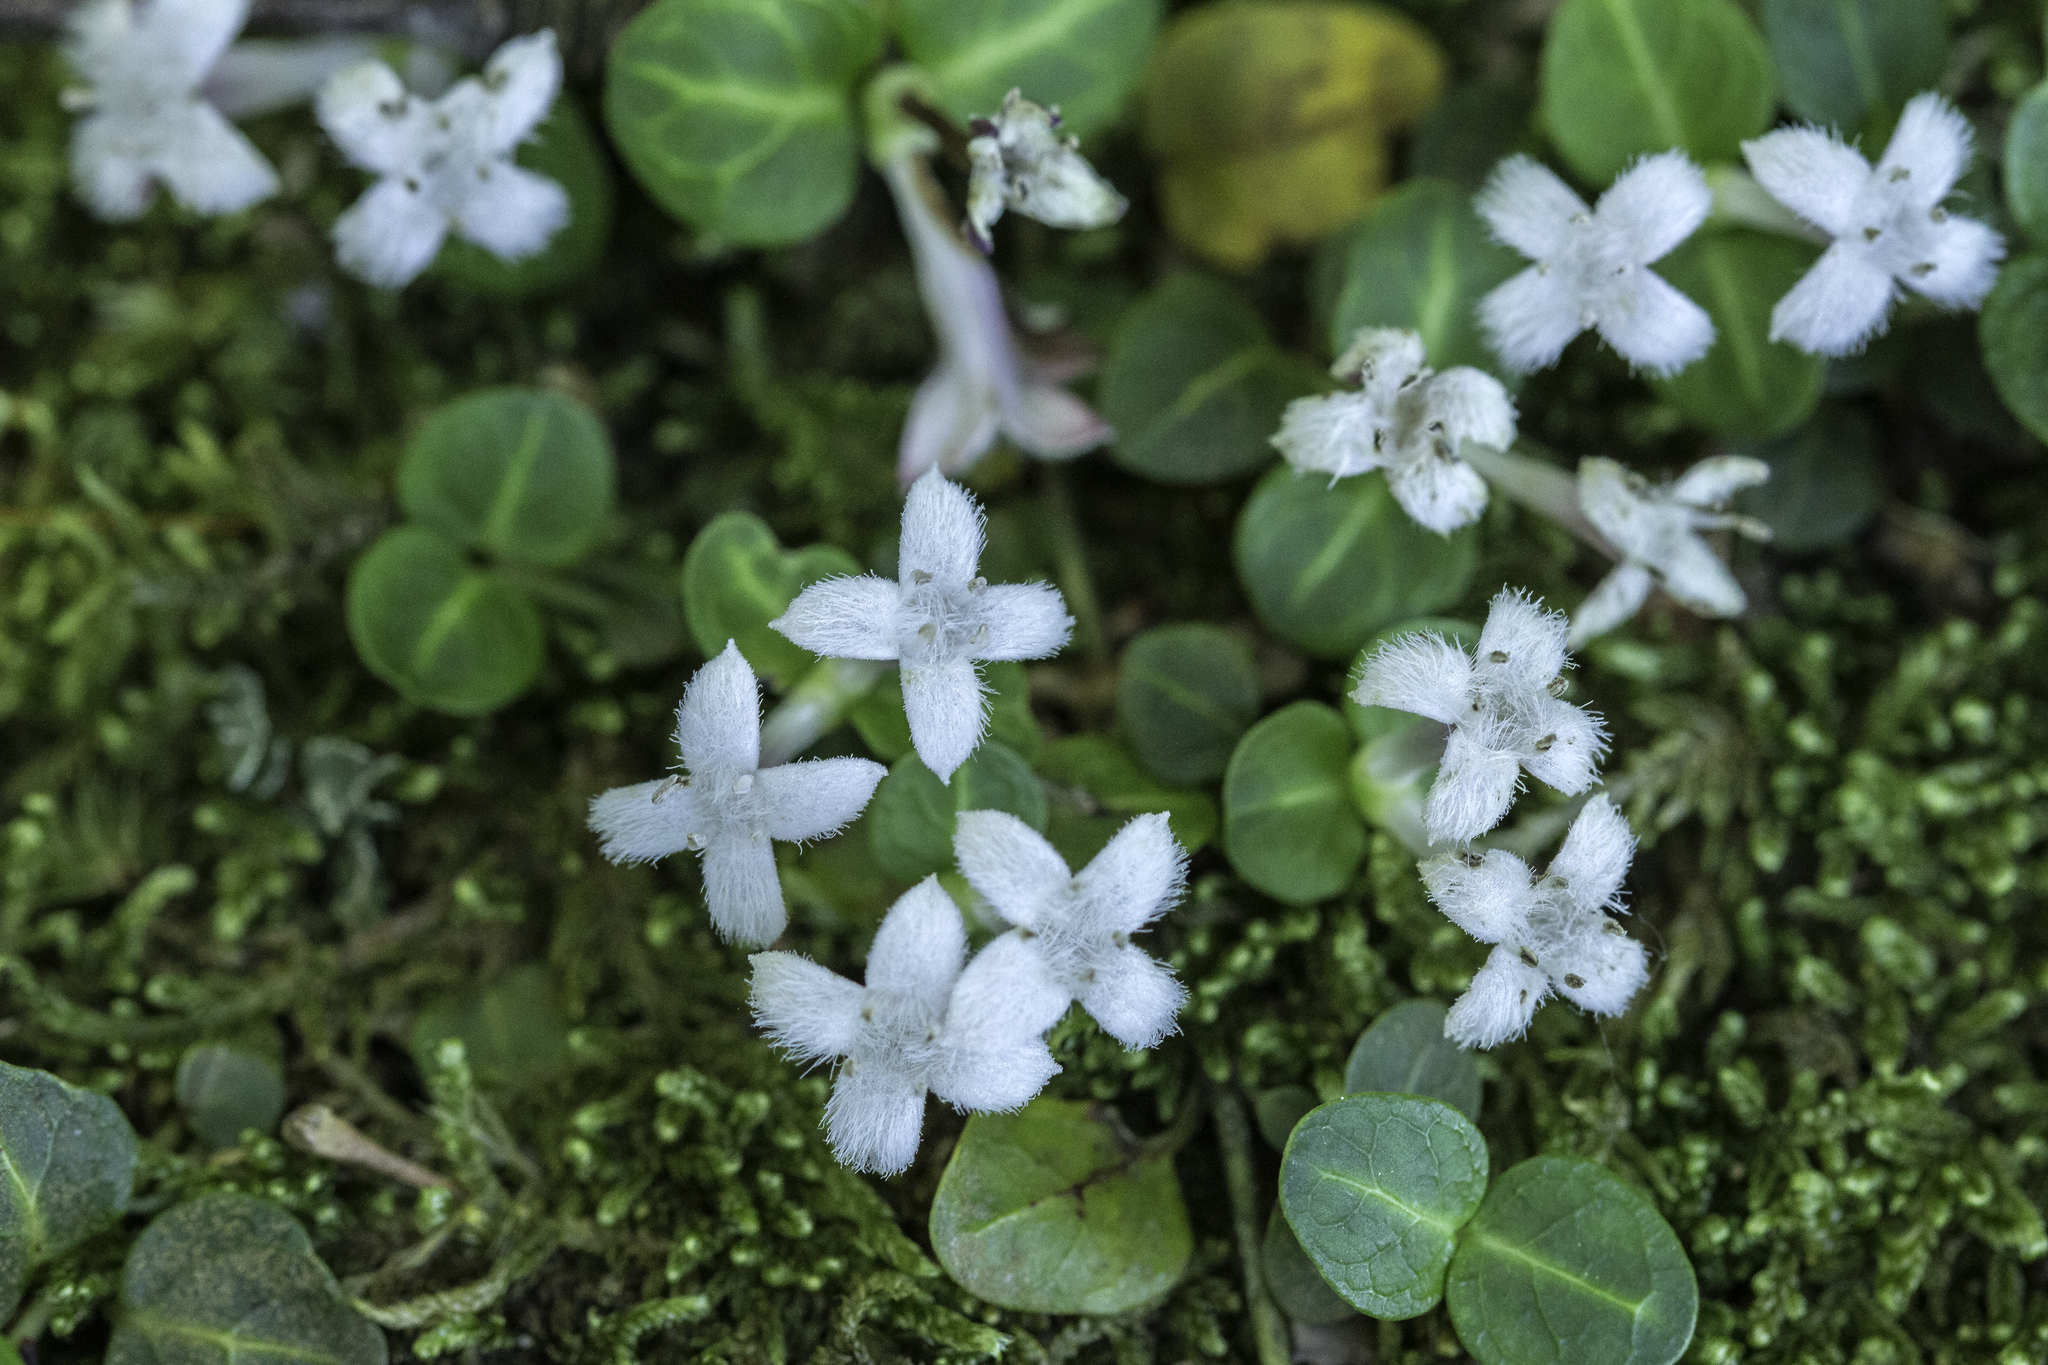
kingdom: Plantae
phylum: Tracheophyta
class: Magnoliopsida
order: Gentianales
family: Rubiaceae
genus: Mitchella
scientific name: Mitchella repens
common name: Partridge-berry
